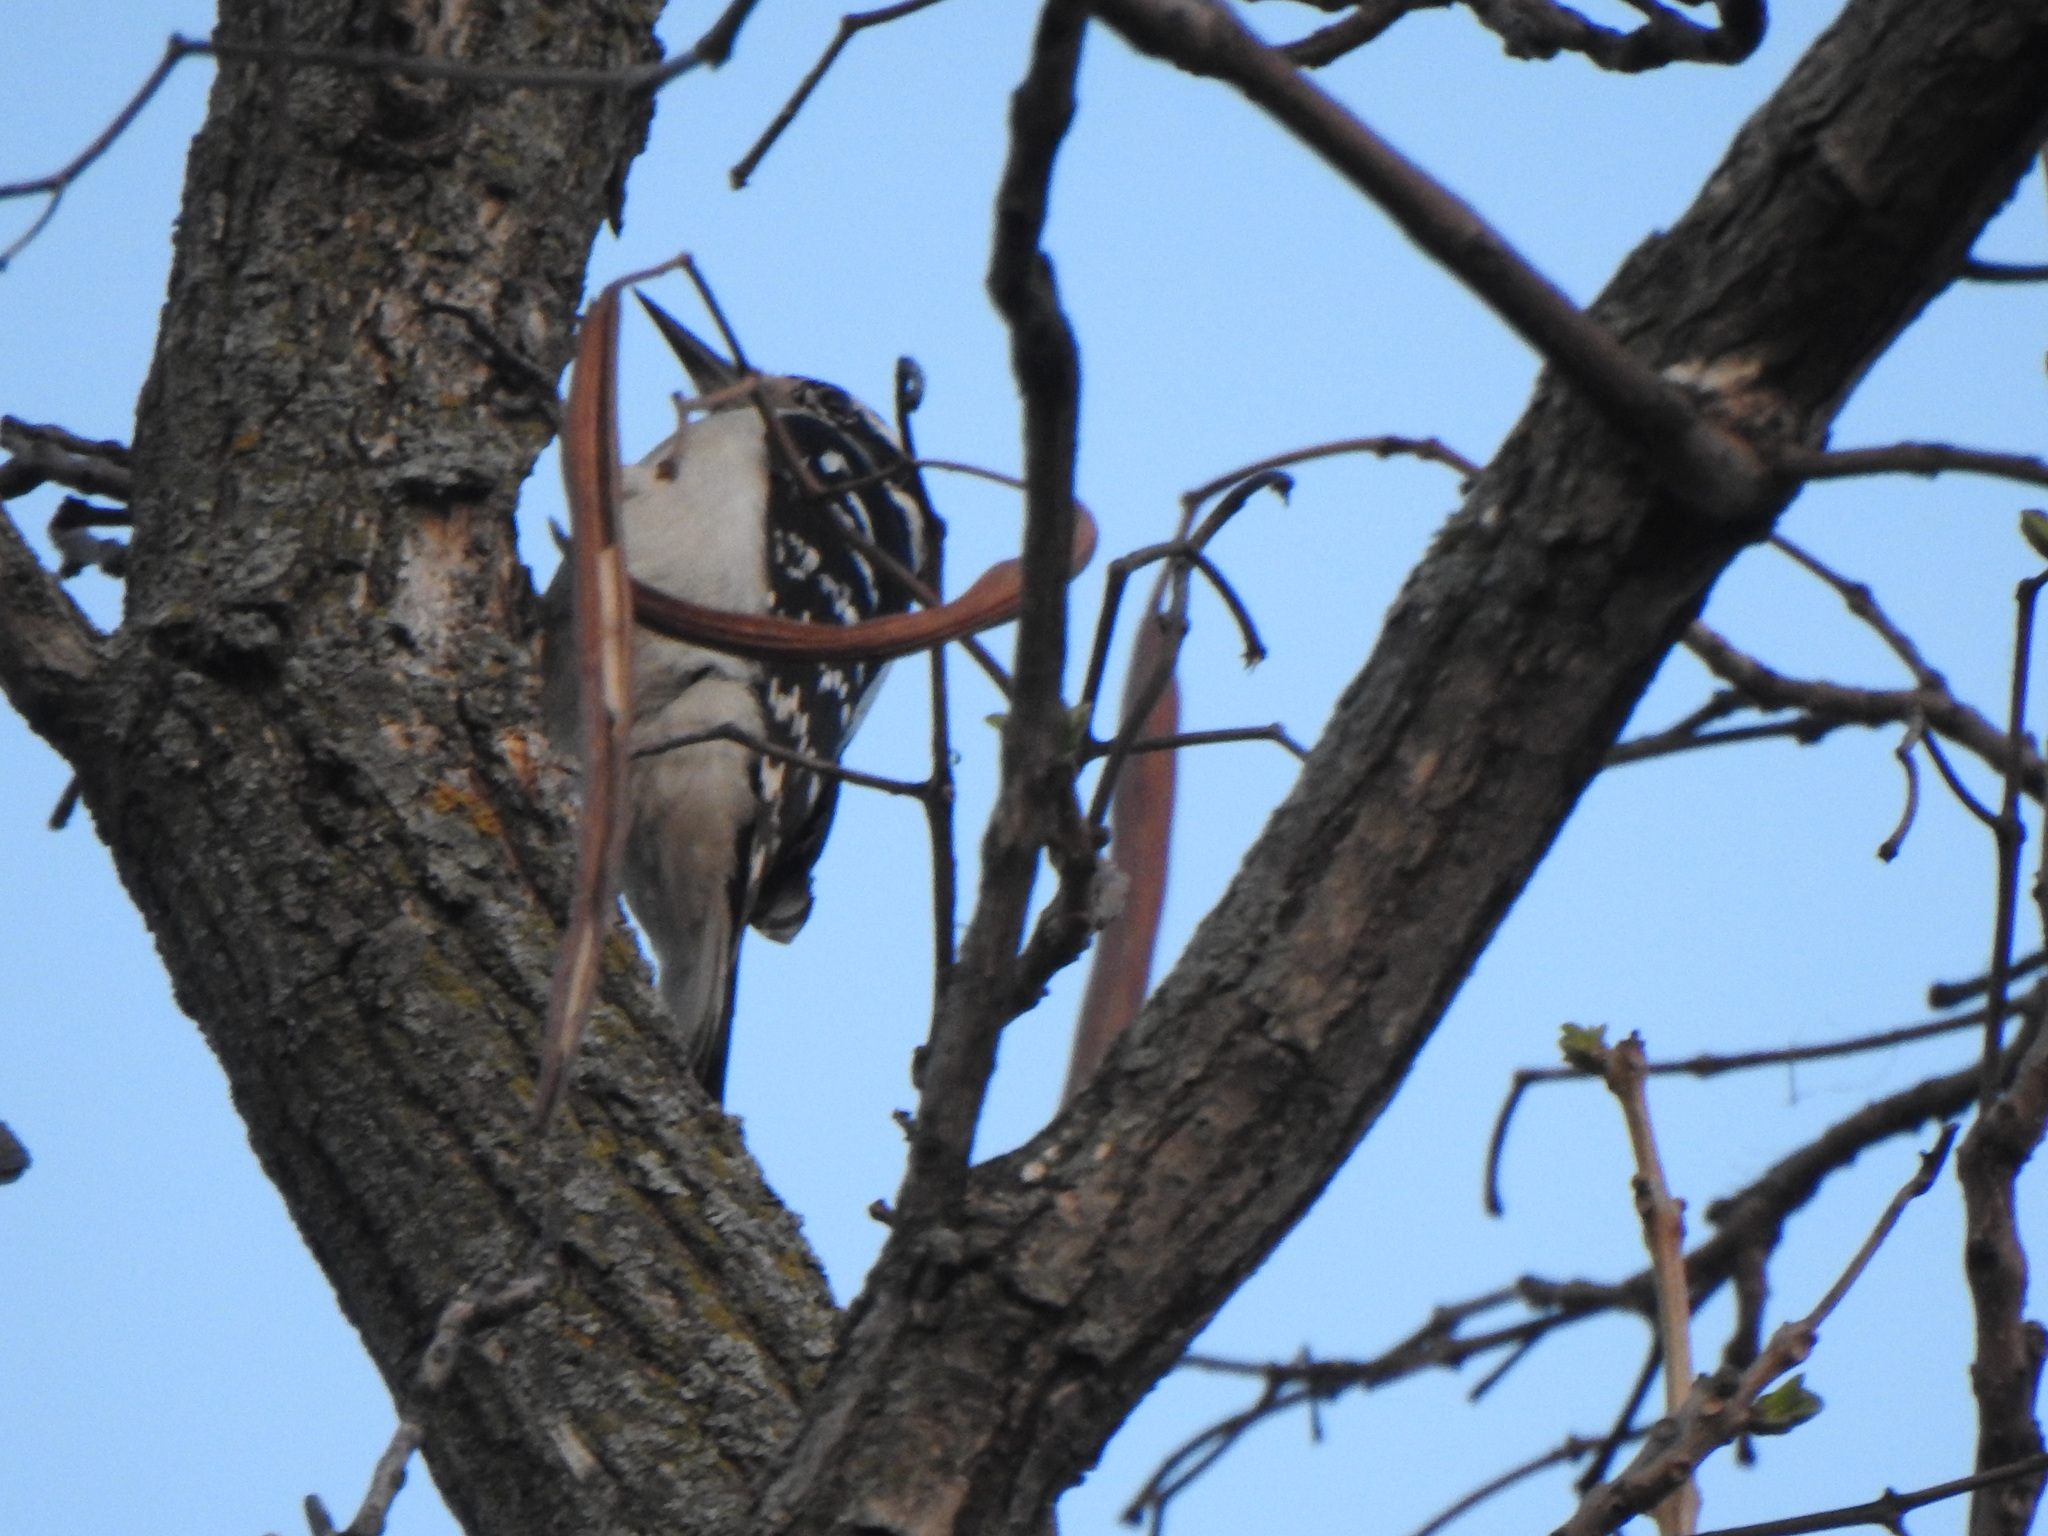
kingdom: Animalia
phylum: Chordata
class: Aves
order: Piciformes
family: Picidae
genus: Leuconotopicus
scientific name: Leuconotopicus villosus
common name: Hairy woodpecker
